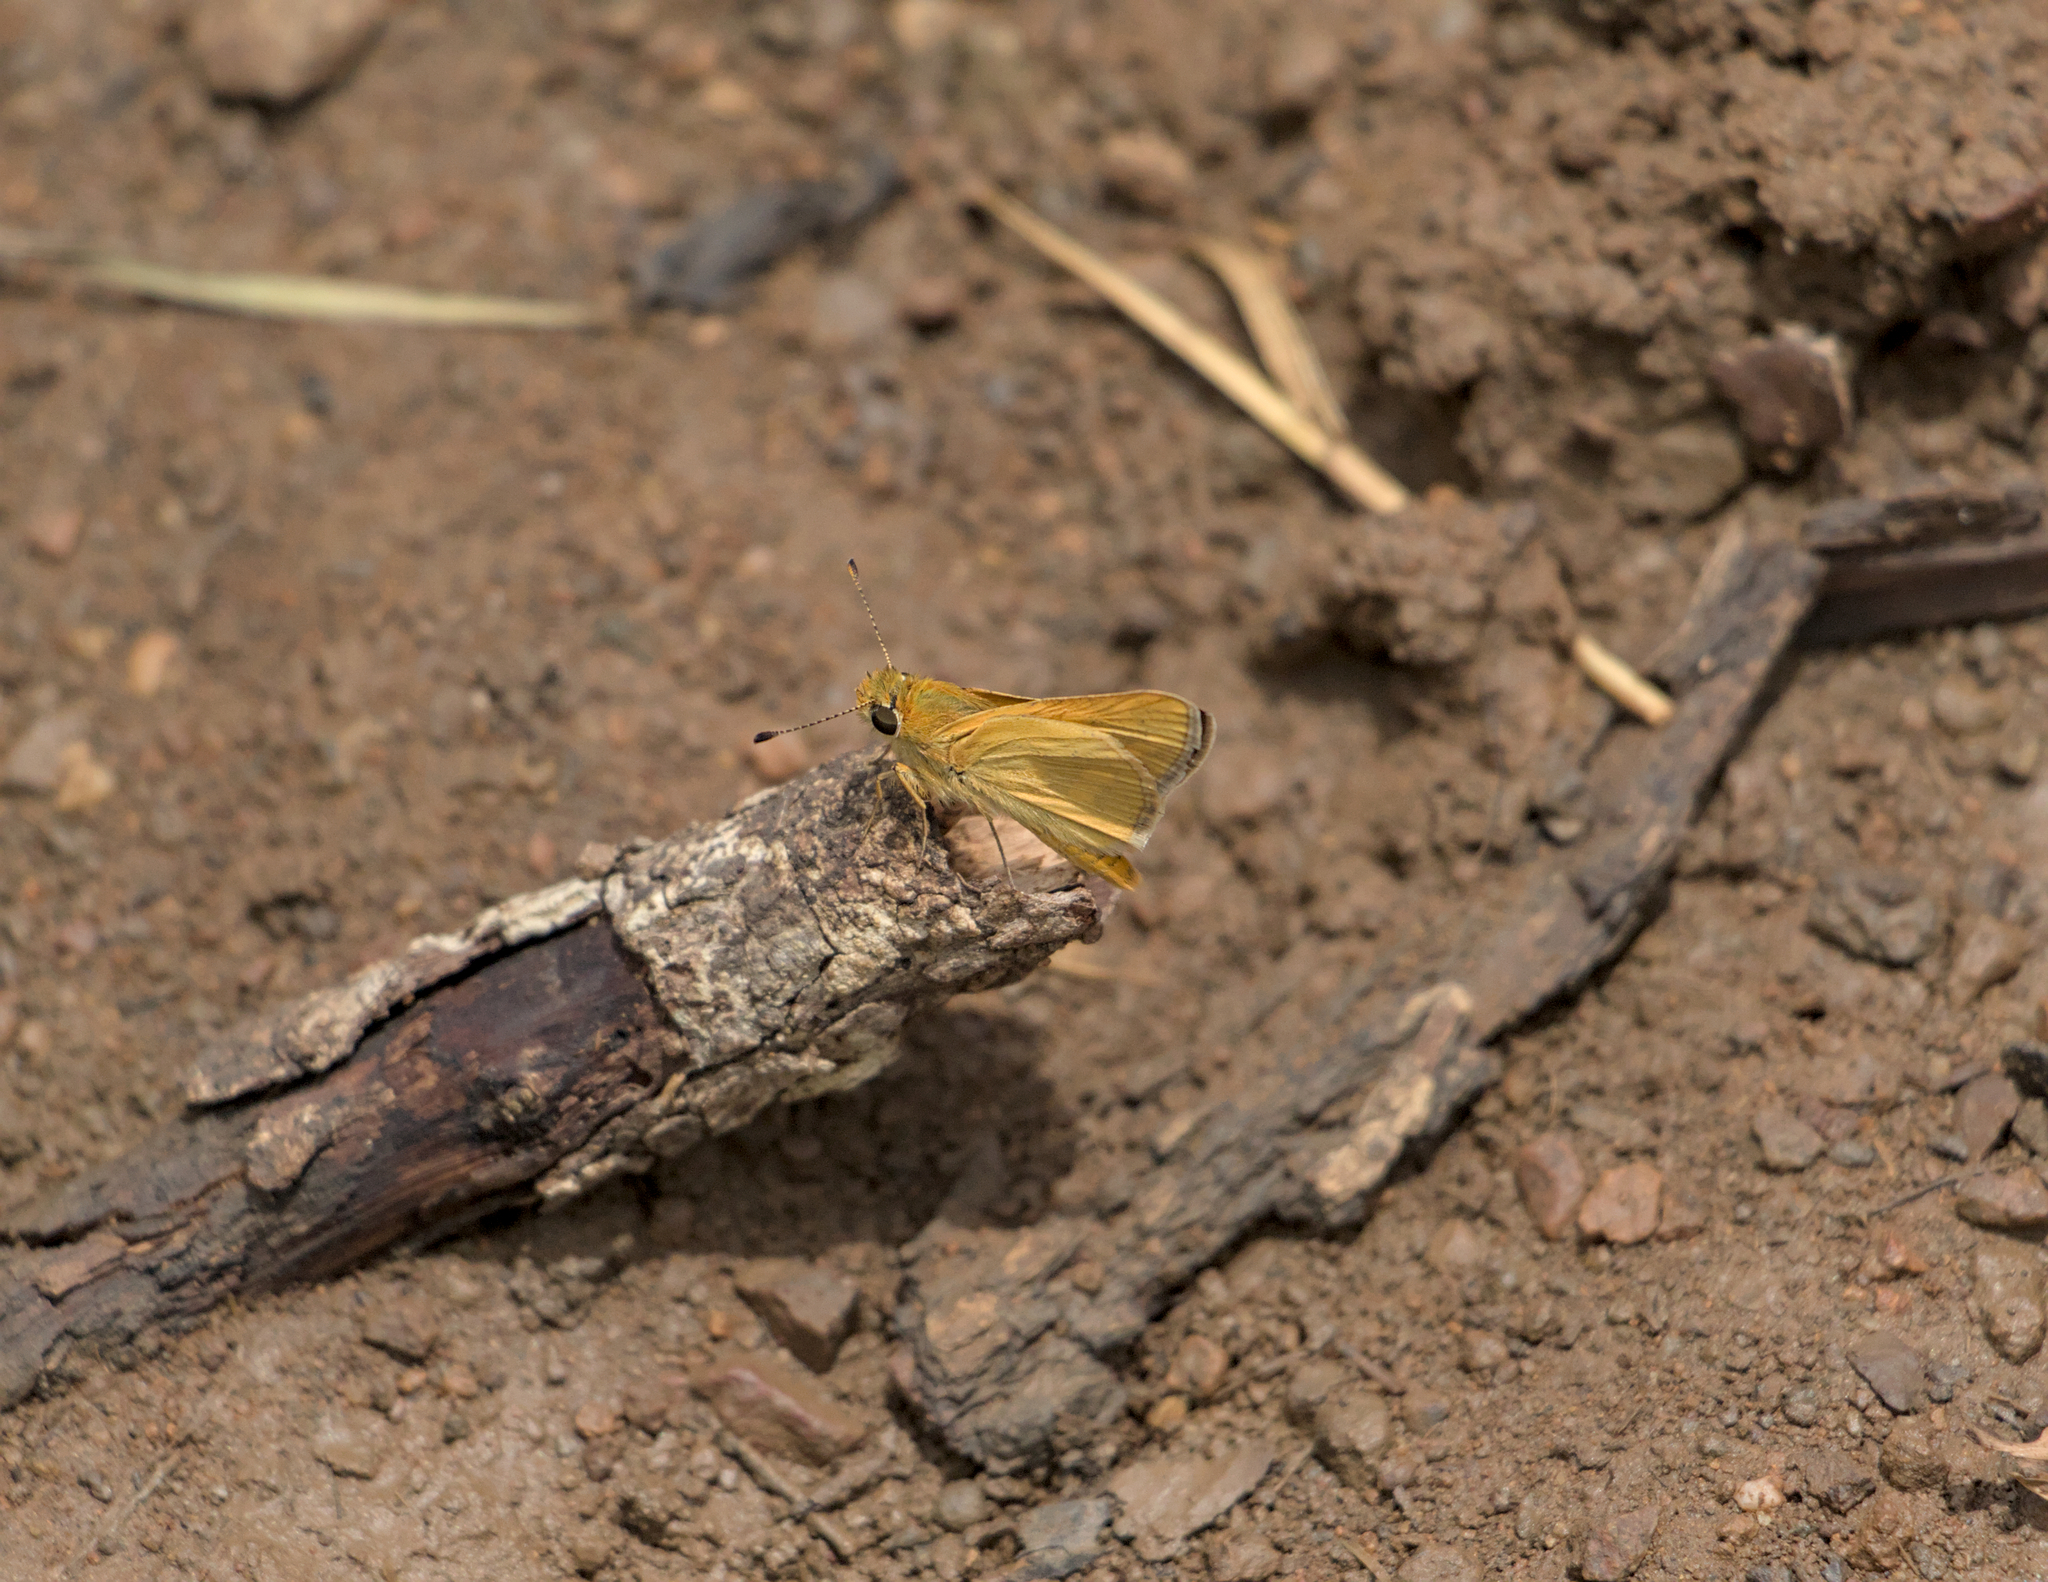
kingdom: Animalia
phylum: Arthropoda
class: Insecta
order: Lepidoptera
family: Hesperiidae
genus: Taractrocera
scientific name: Taractrocera anisomorpha
